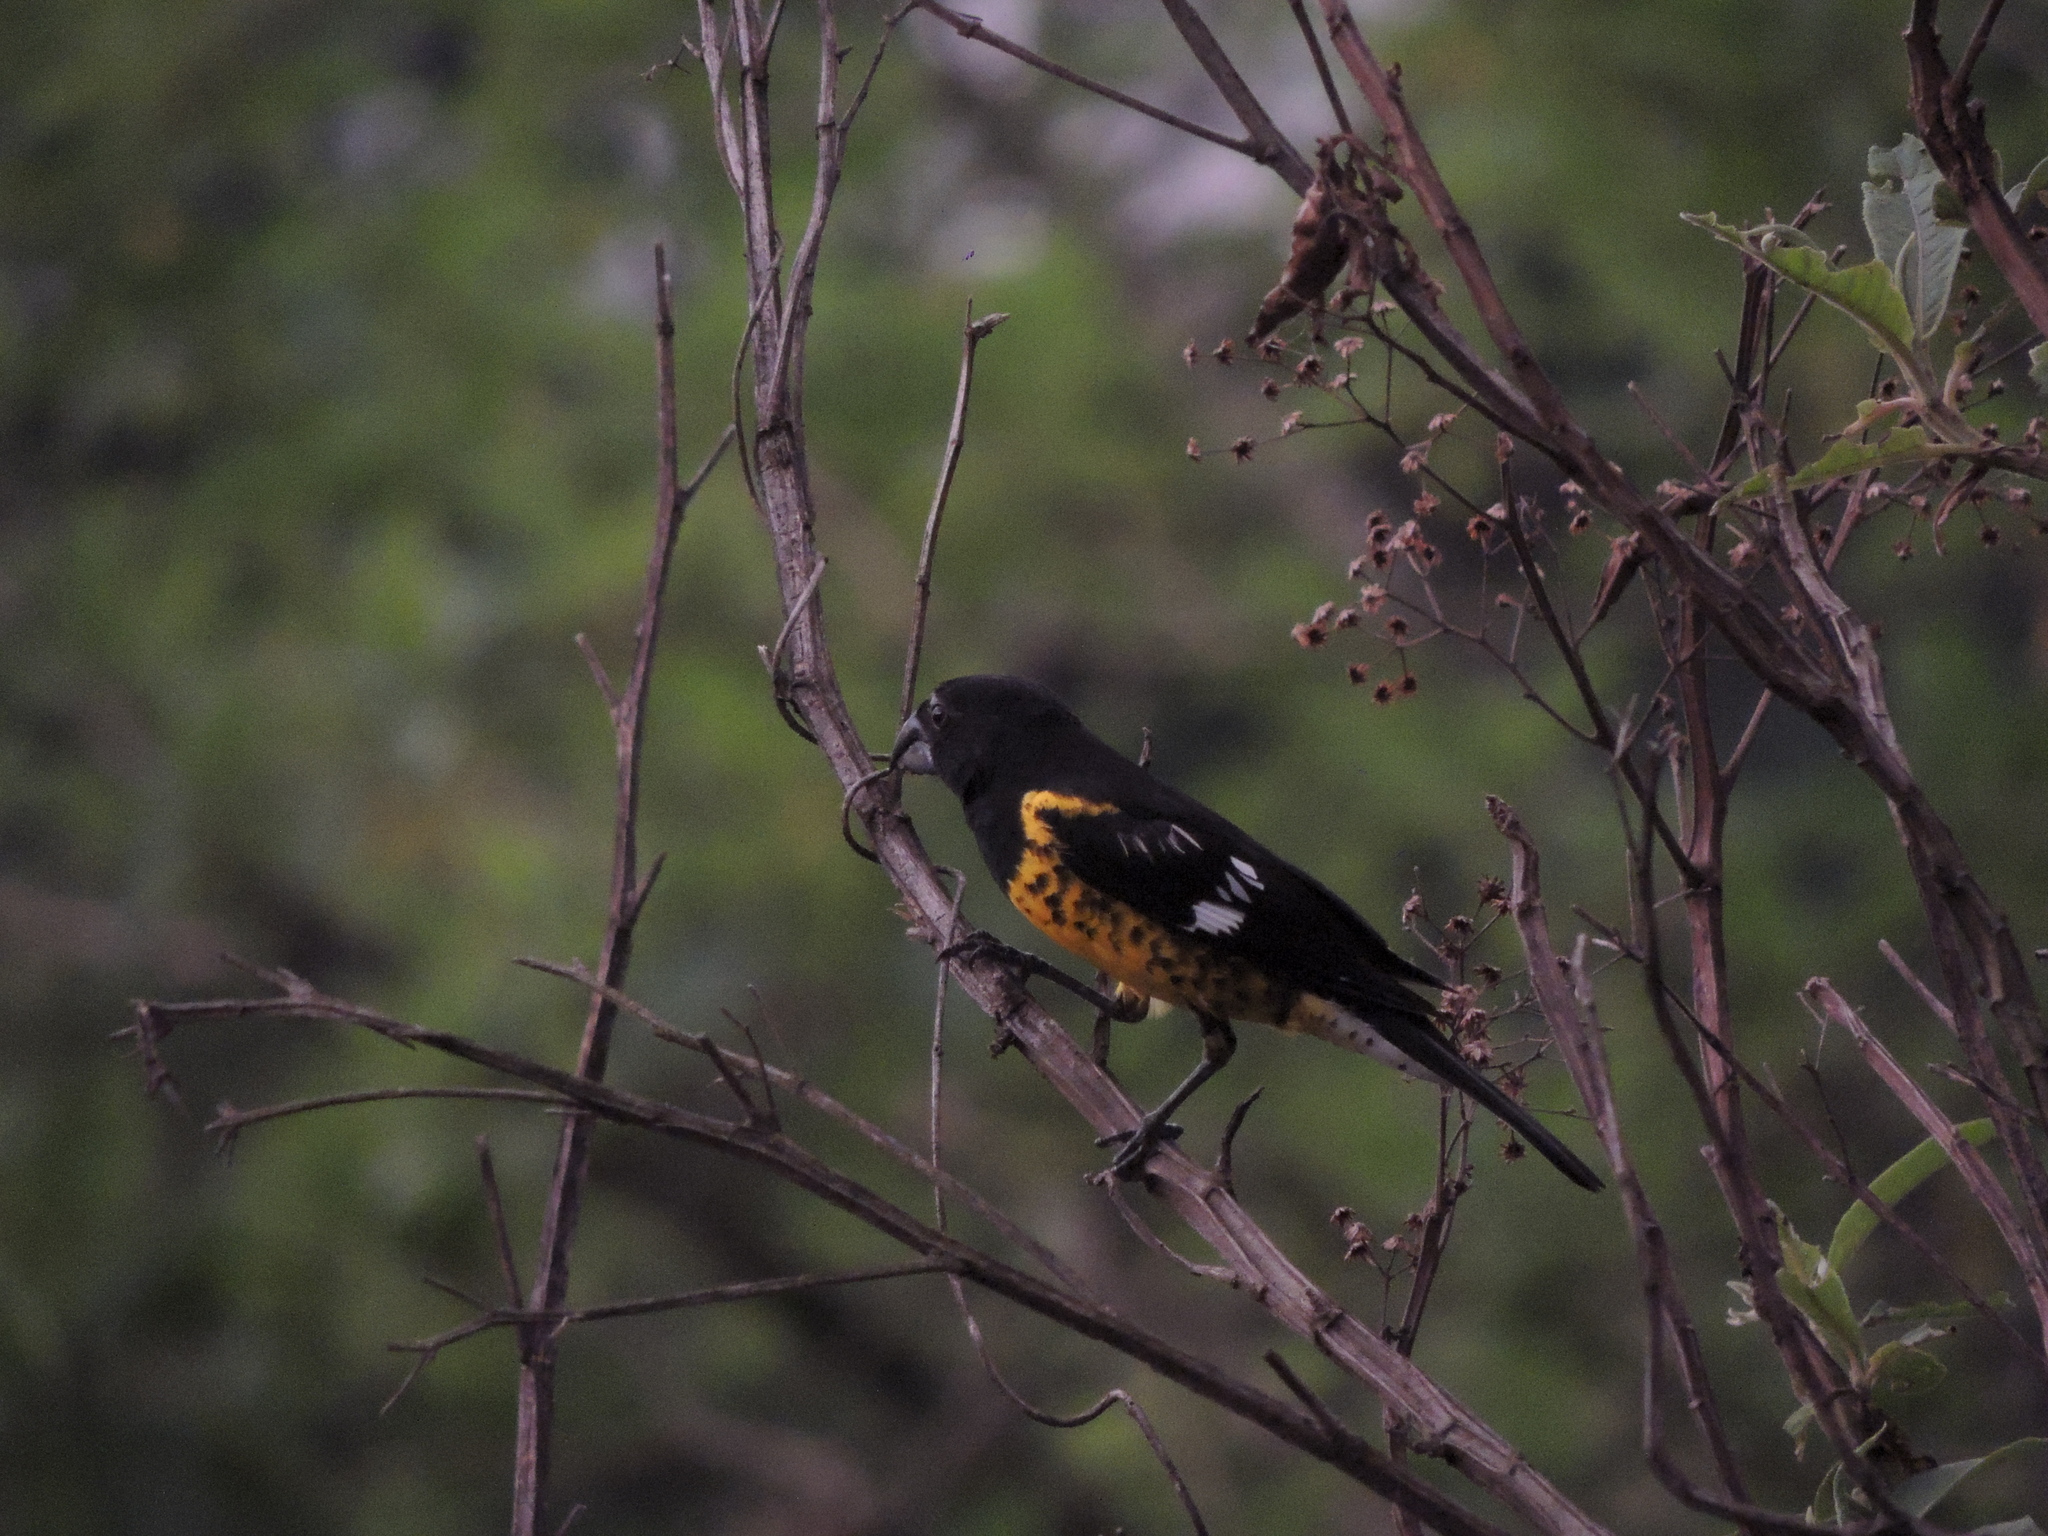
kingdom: Animalia
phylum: Chordata
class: Aves
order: Passeriformes
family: Cardinalidae
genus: Pheucticus
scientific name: Pheucticus aureoventris
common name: Black-backed grosbeak
